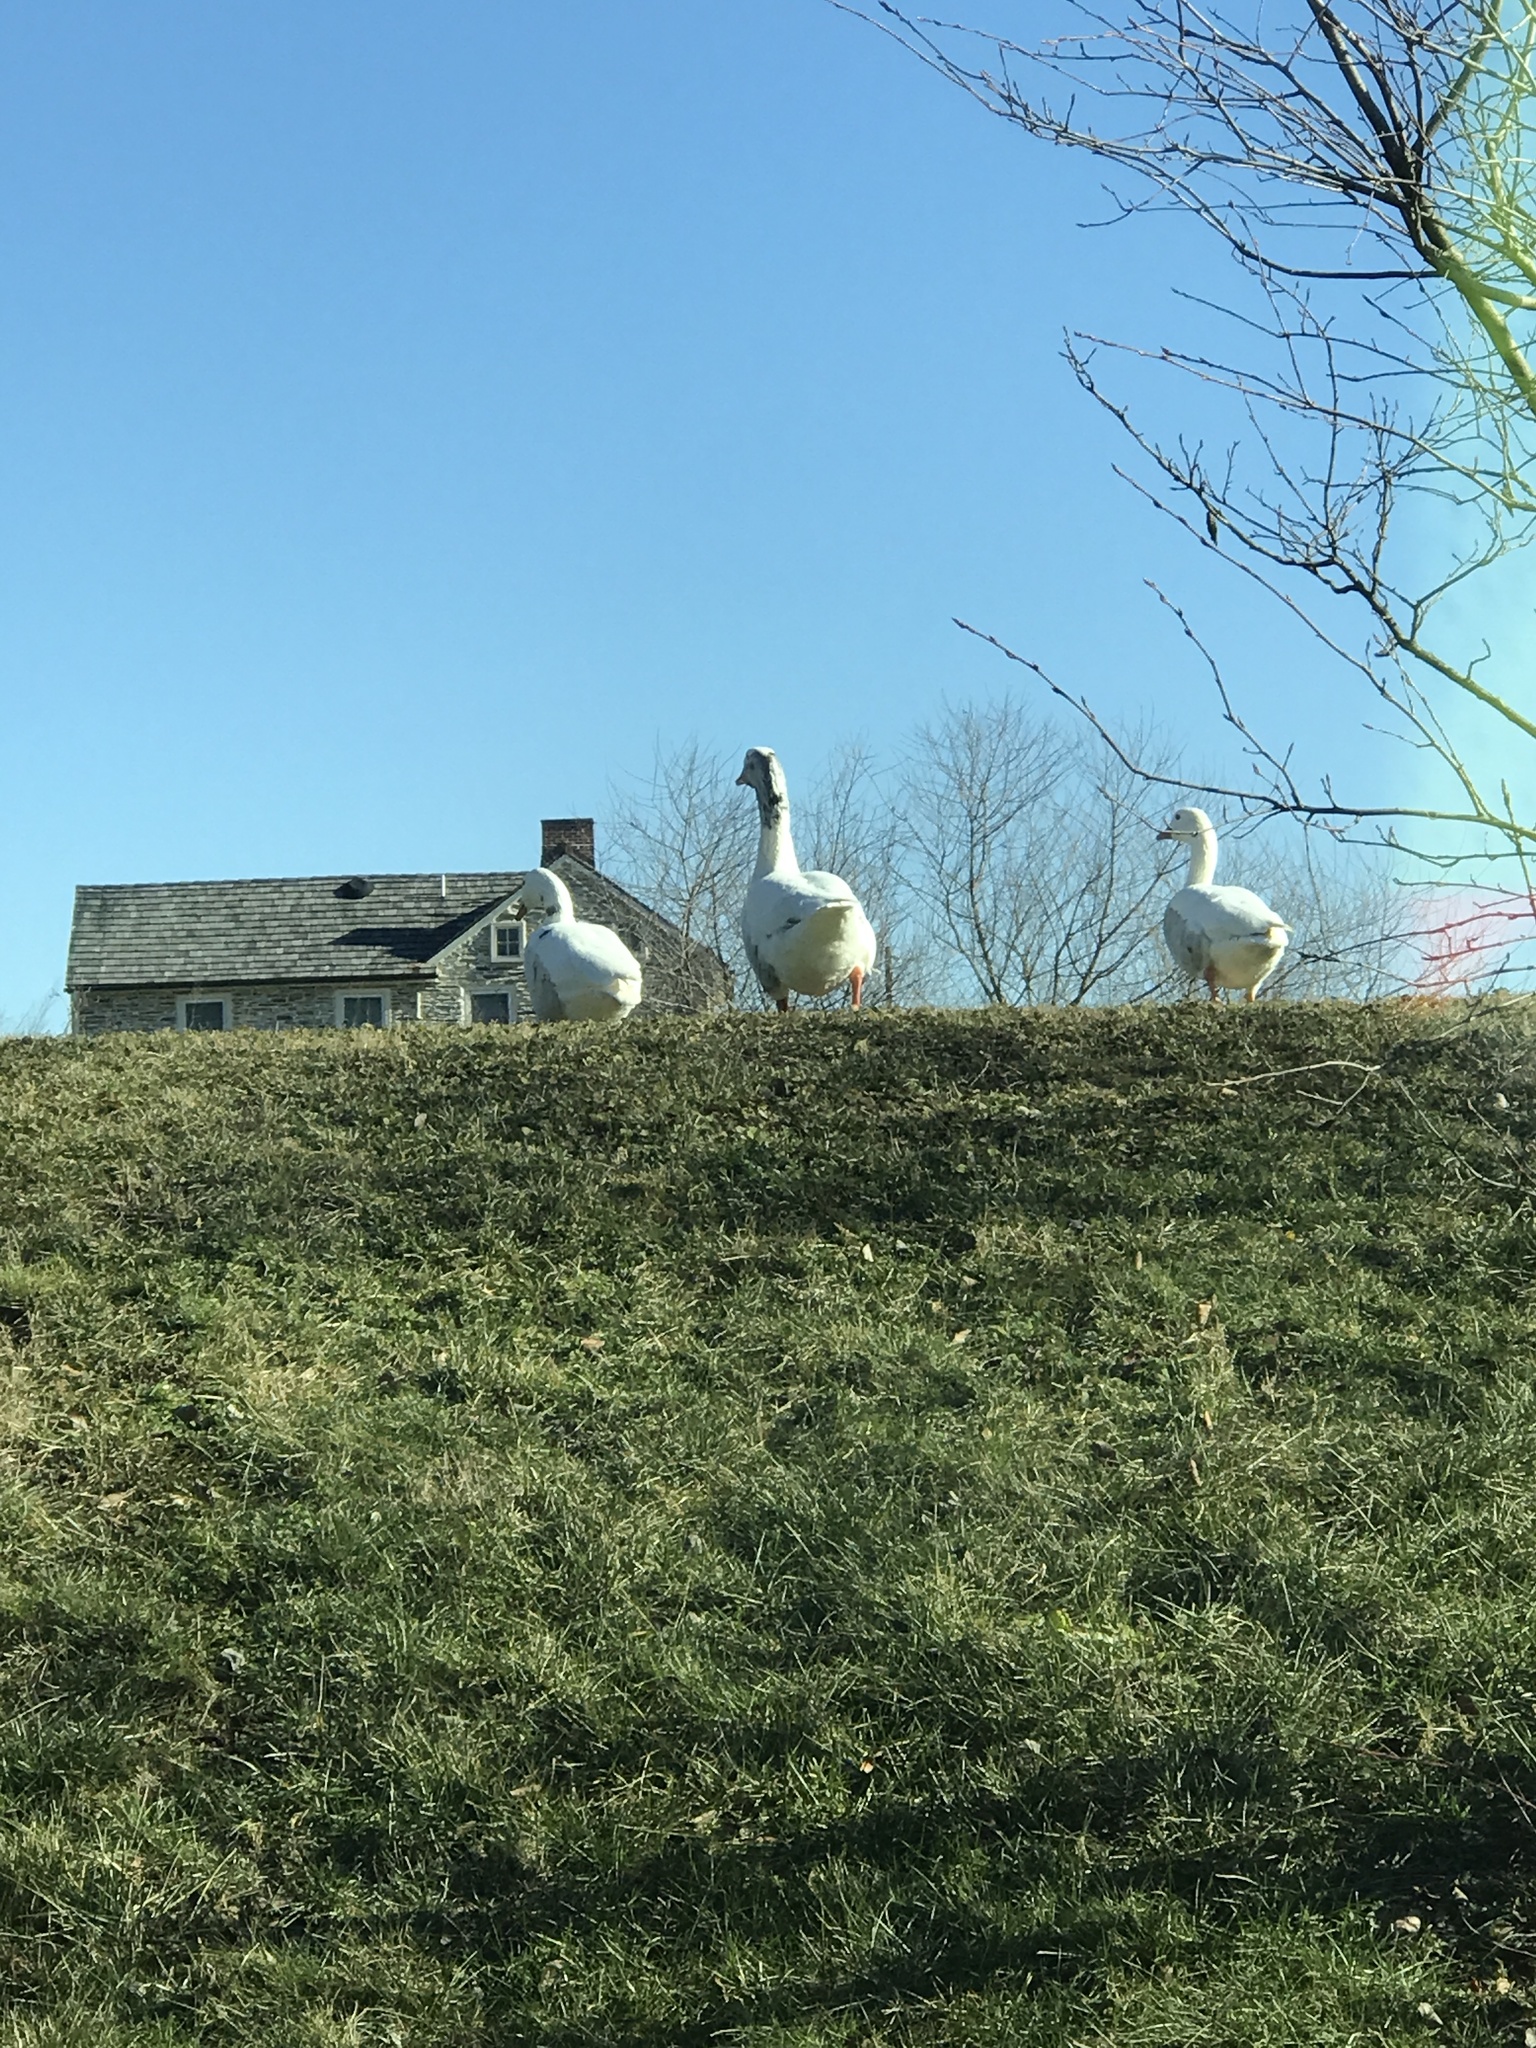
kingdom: Animalia
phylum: Chordata
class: Aves
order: Anseriformes
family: Anatidae
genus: Anser
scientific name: Anser anser
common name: Greylag goose
